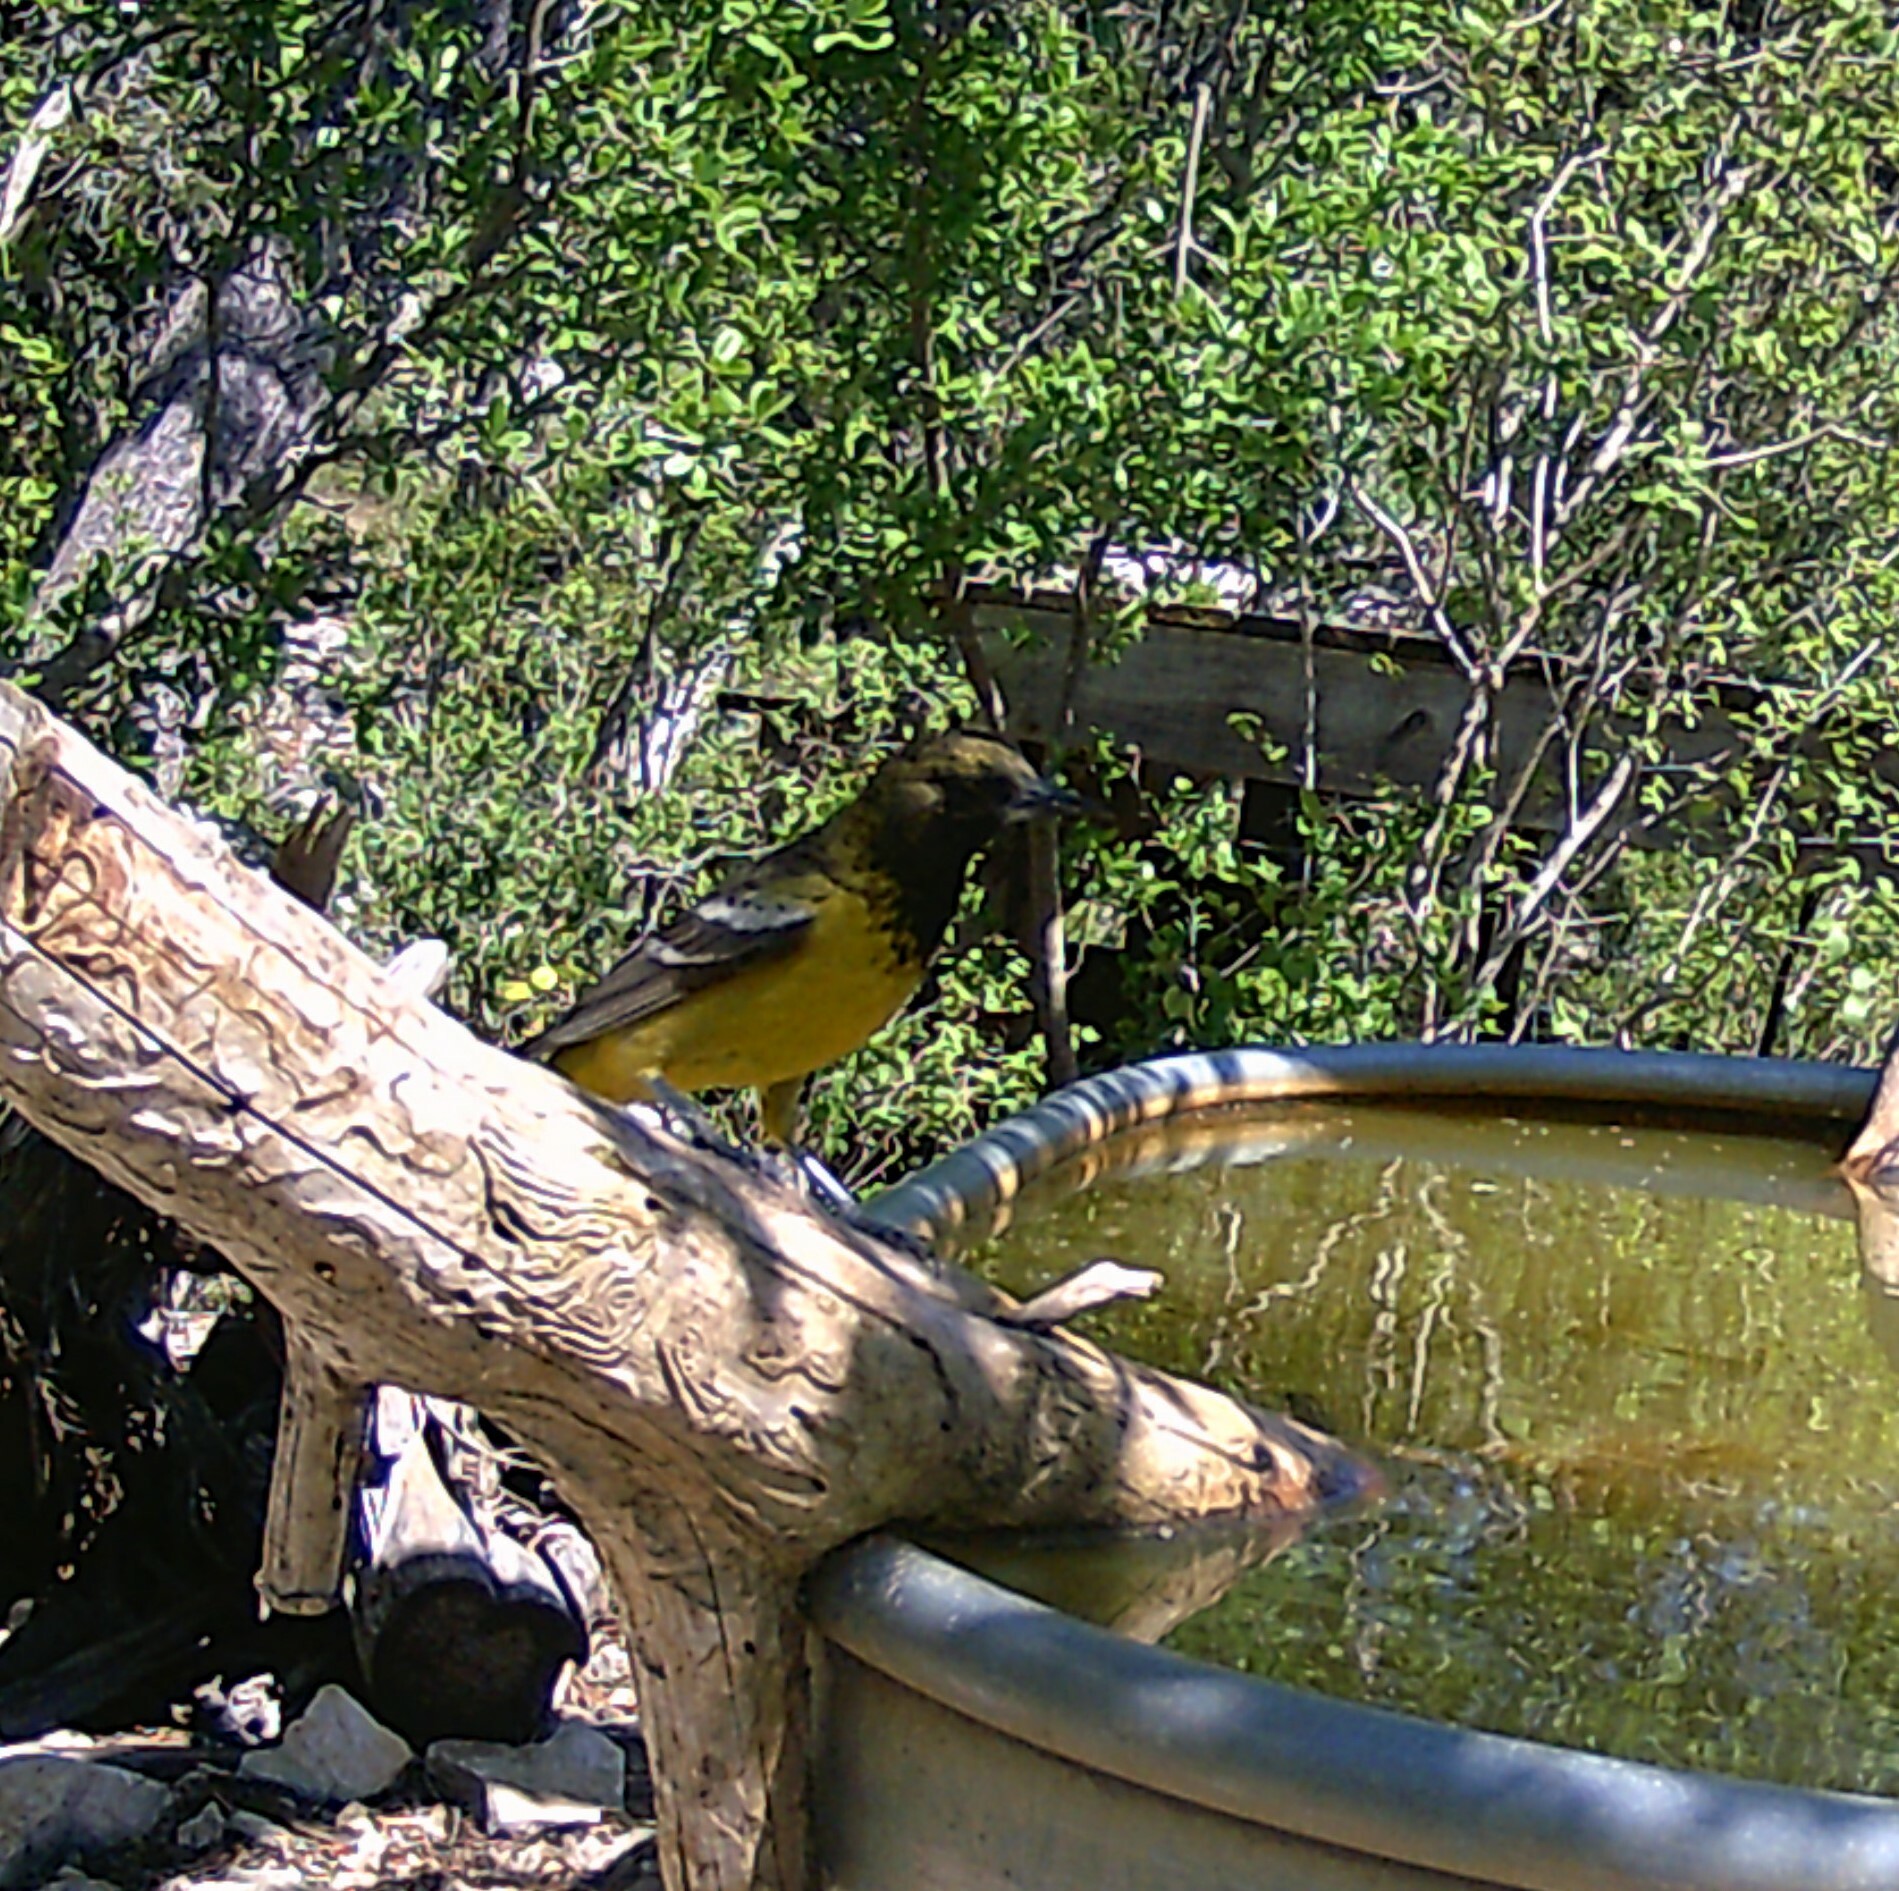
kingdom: Animalia
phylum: Chordata
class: Aves
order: Passeriformes
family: Icteridae
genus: Icterus
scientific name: Icterus parisorum
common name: Scott's oriole
